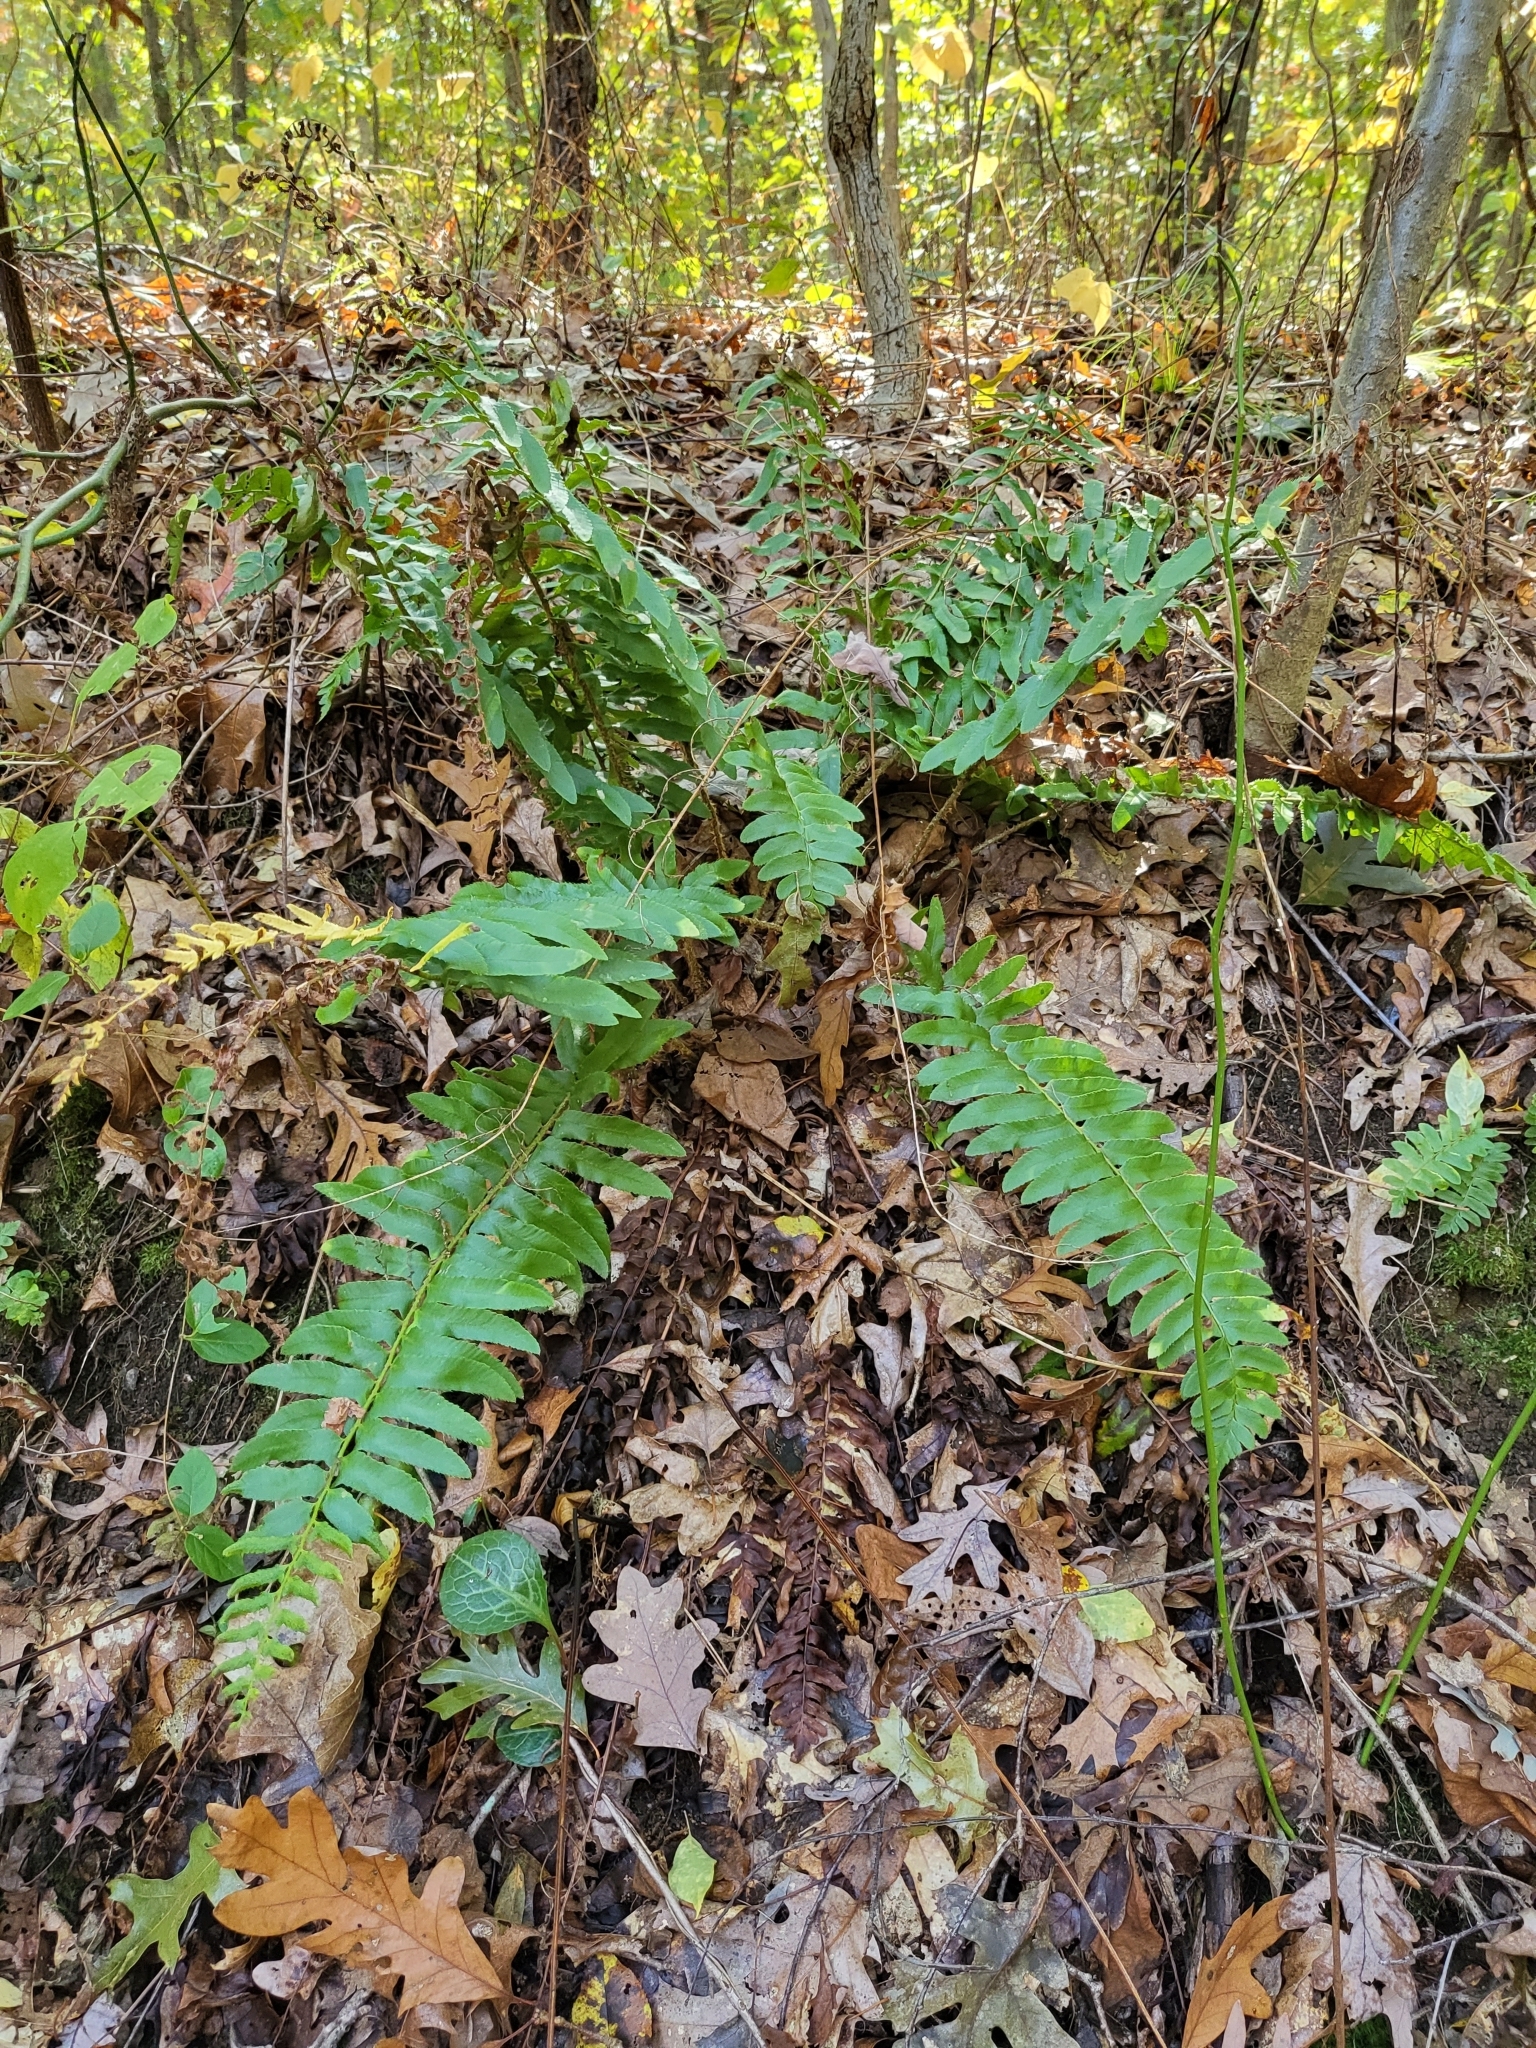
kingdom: Plantae
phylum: Tracheophyta
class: Polypodiopsida
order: Polypodiales
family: Dryopteridaceae
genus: Polystichum
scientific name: Polystichum acrostichoides
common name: Christmas fern
